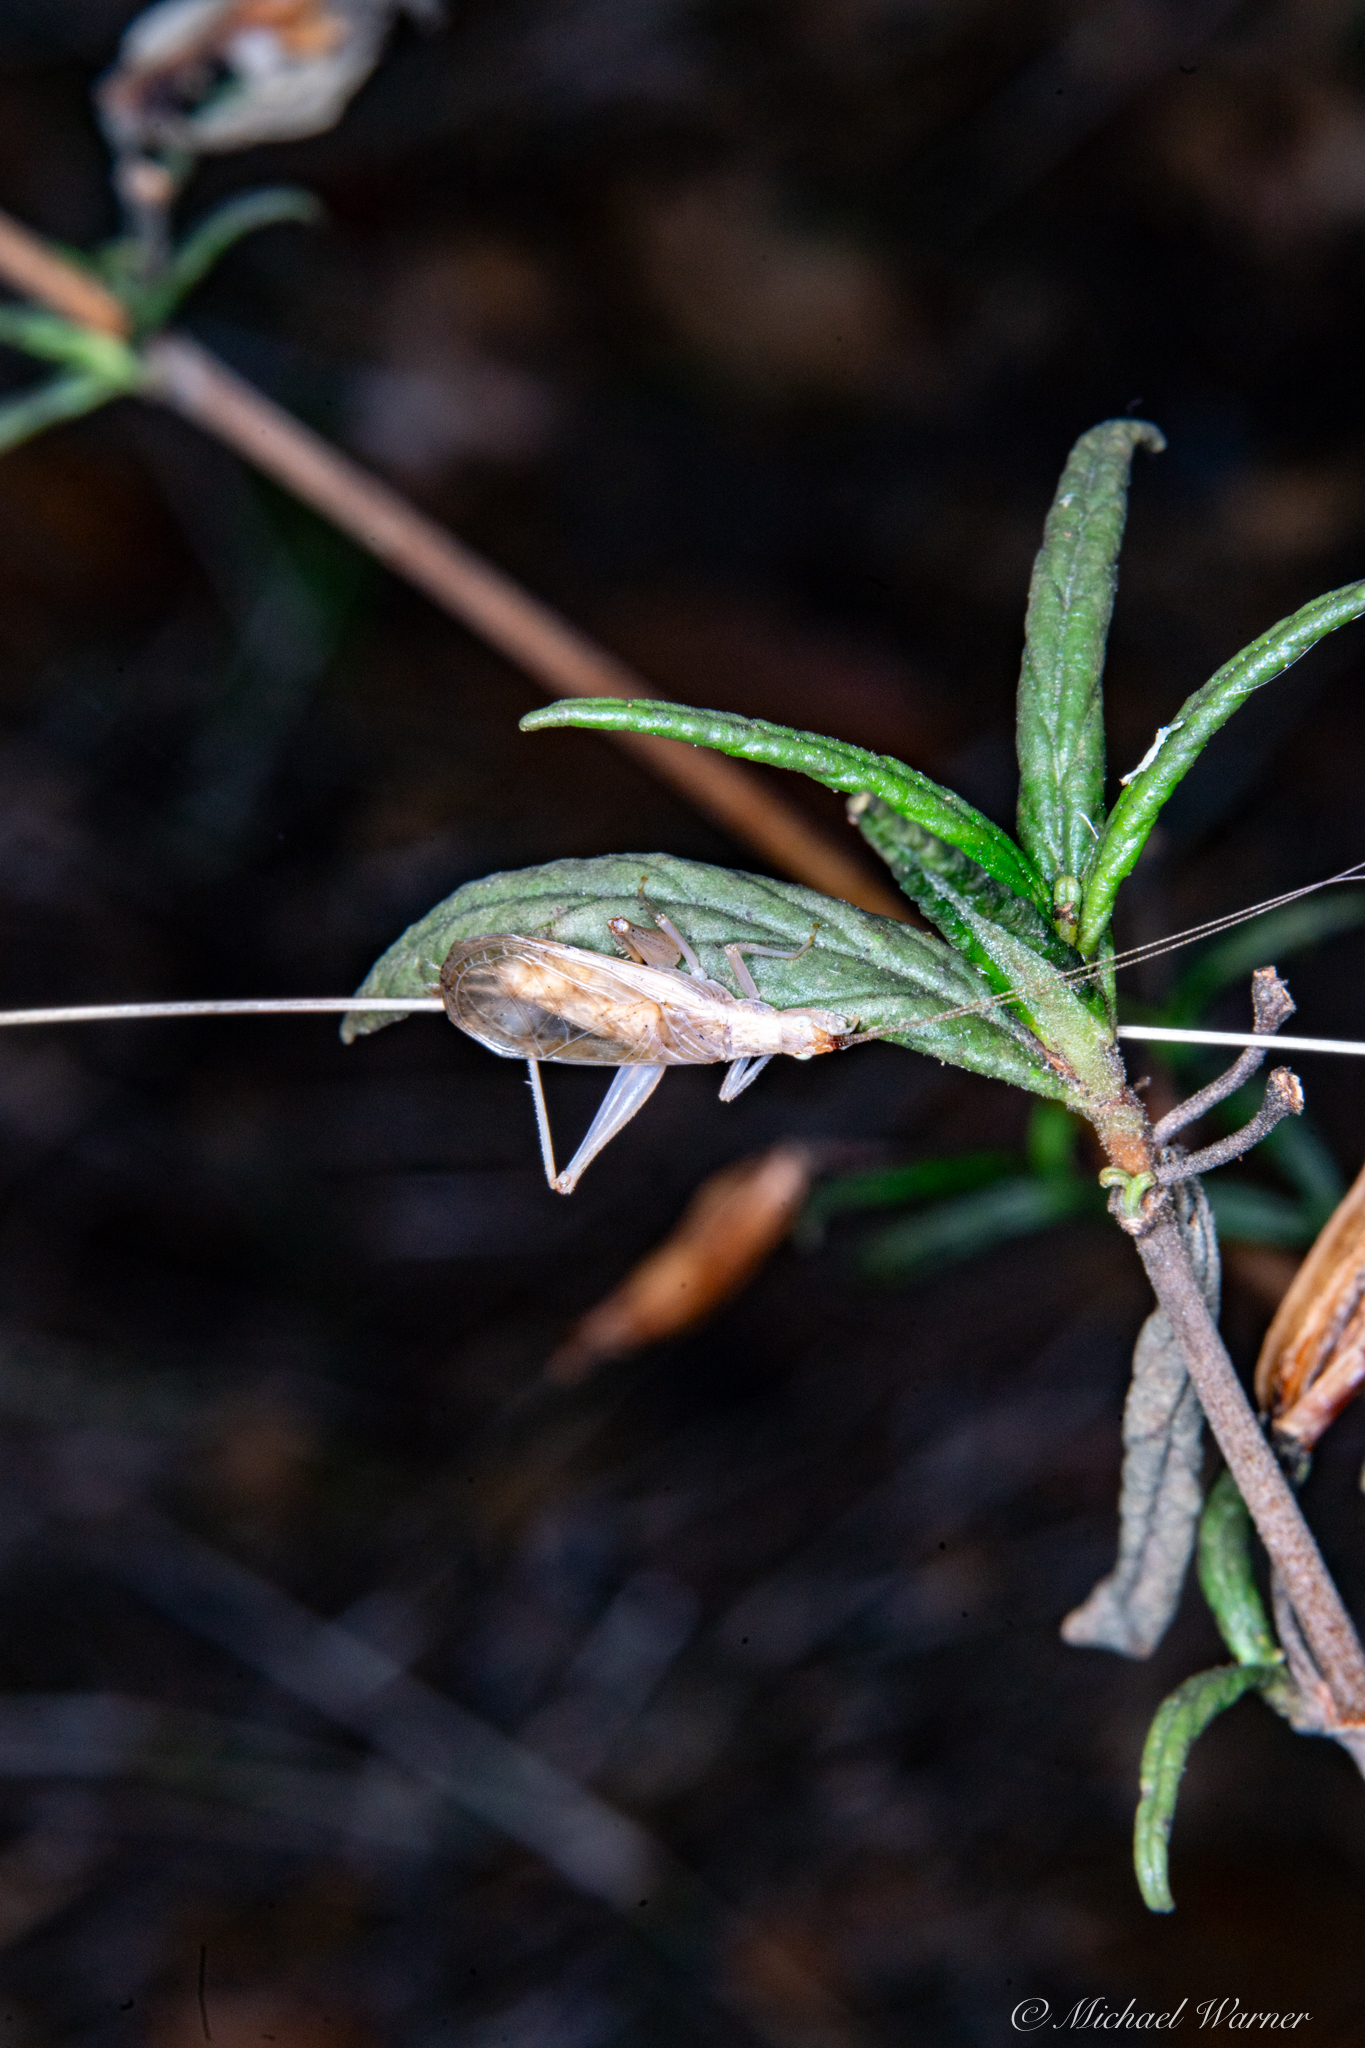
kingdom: Animalia
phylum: Arthropoda
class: Insecta
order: Orthoptera
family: Gryllidae
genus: Oecanthus
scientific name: Oecanthus californicus
